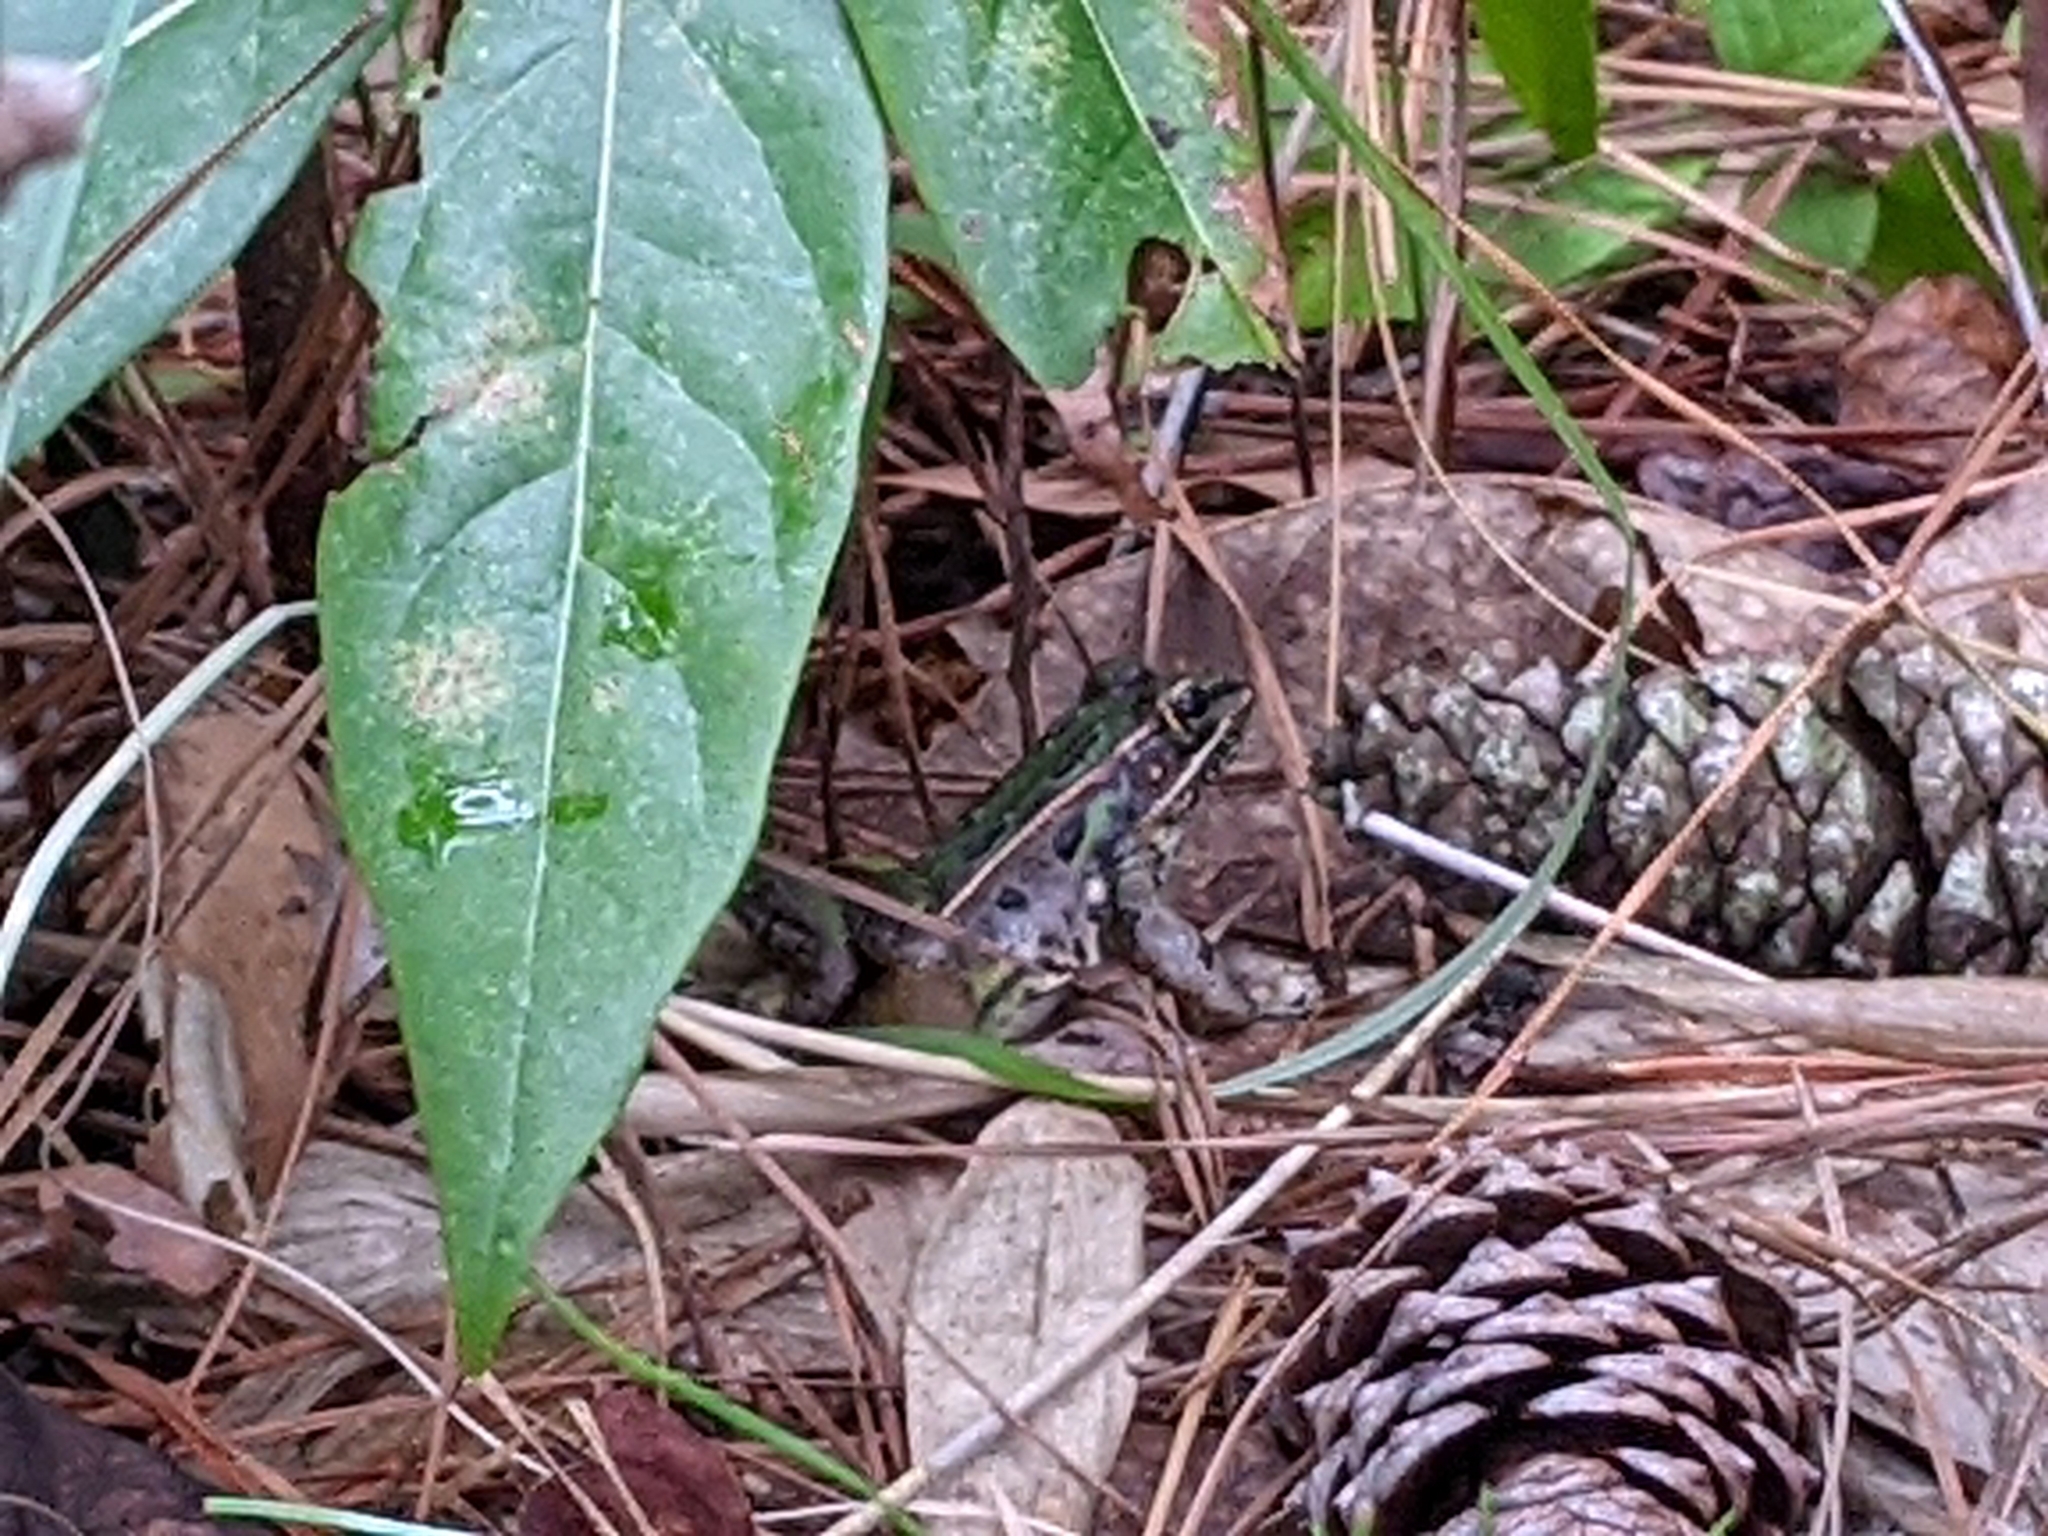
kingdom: Animalia
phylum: Chordata
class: Amphibia
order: Anura
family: Ranidae
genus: Lithobates
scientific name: Lithobates sphenocephalus
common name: Southern leopard frog
